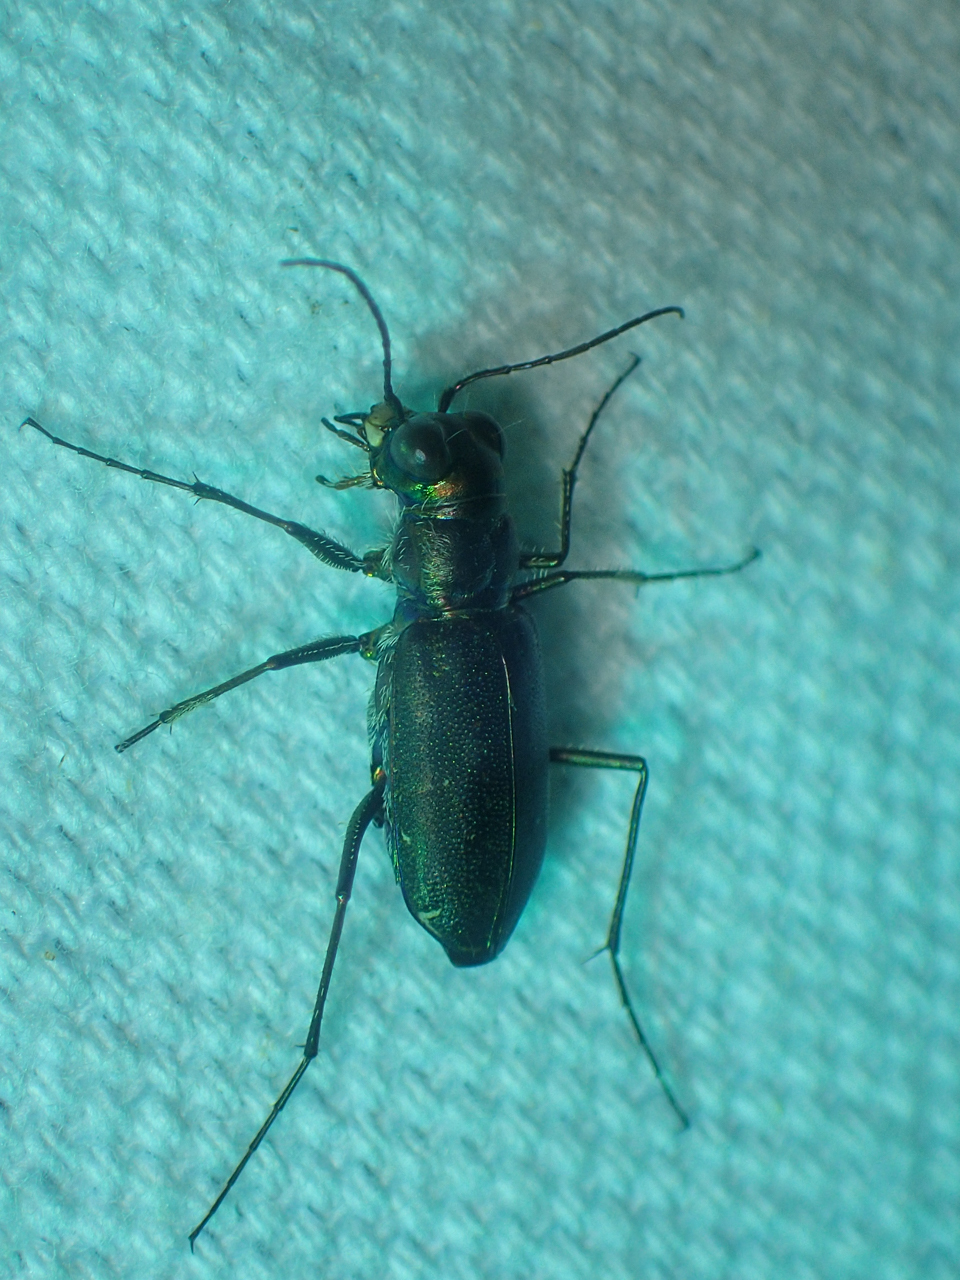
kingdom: Animalia
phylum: Arthropoda
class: Insecta
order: Coleoptera
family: Carabidae
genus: Cicindela
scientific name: Cicindela punctulata
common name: Punctured tiger beetle
